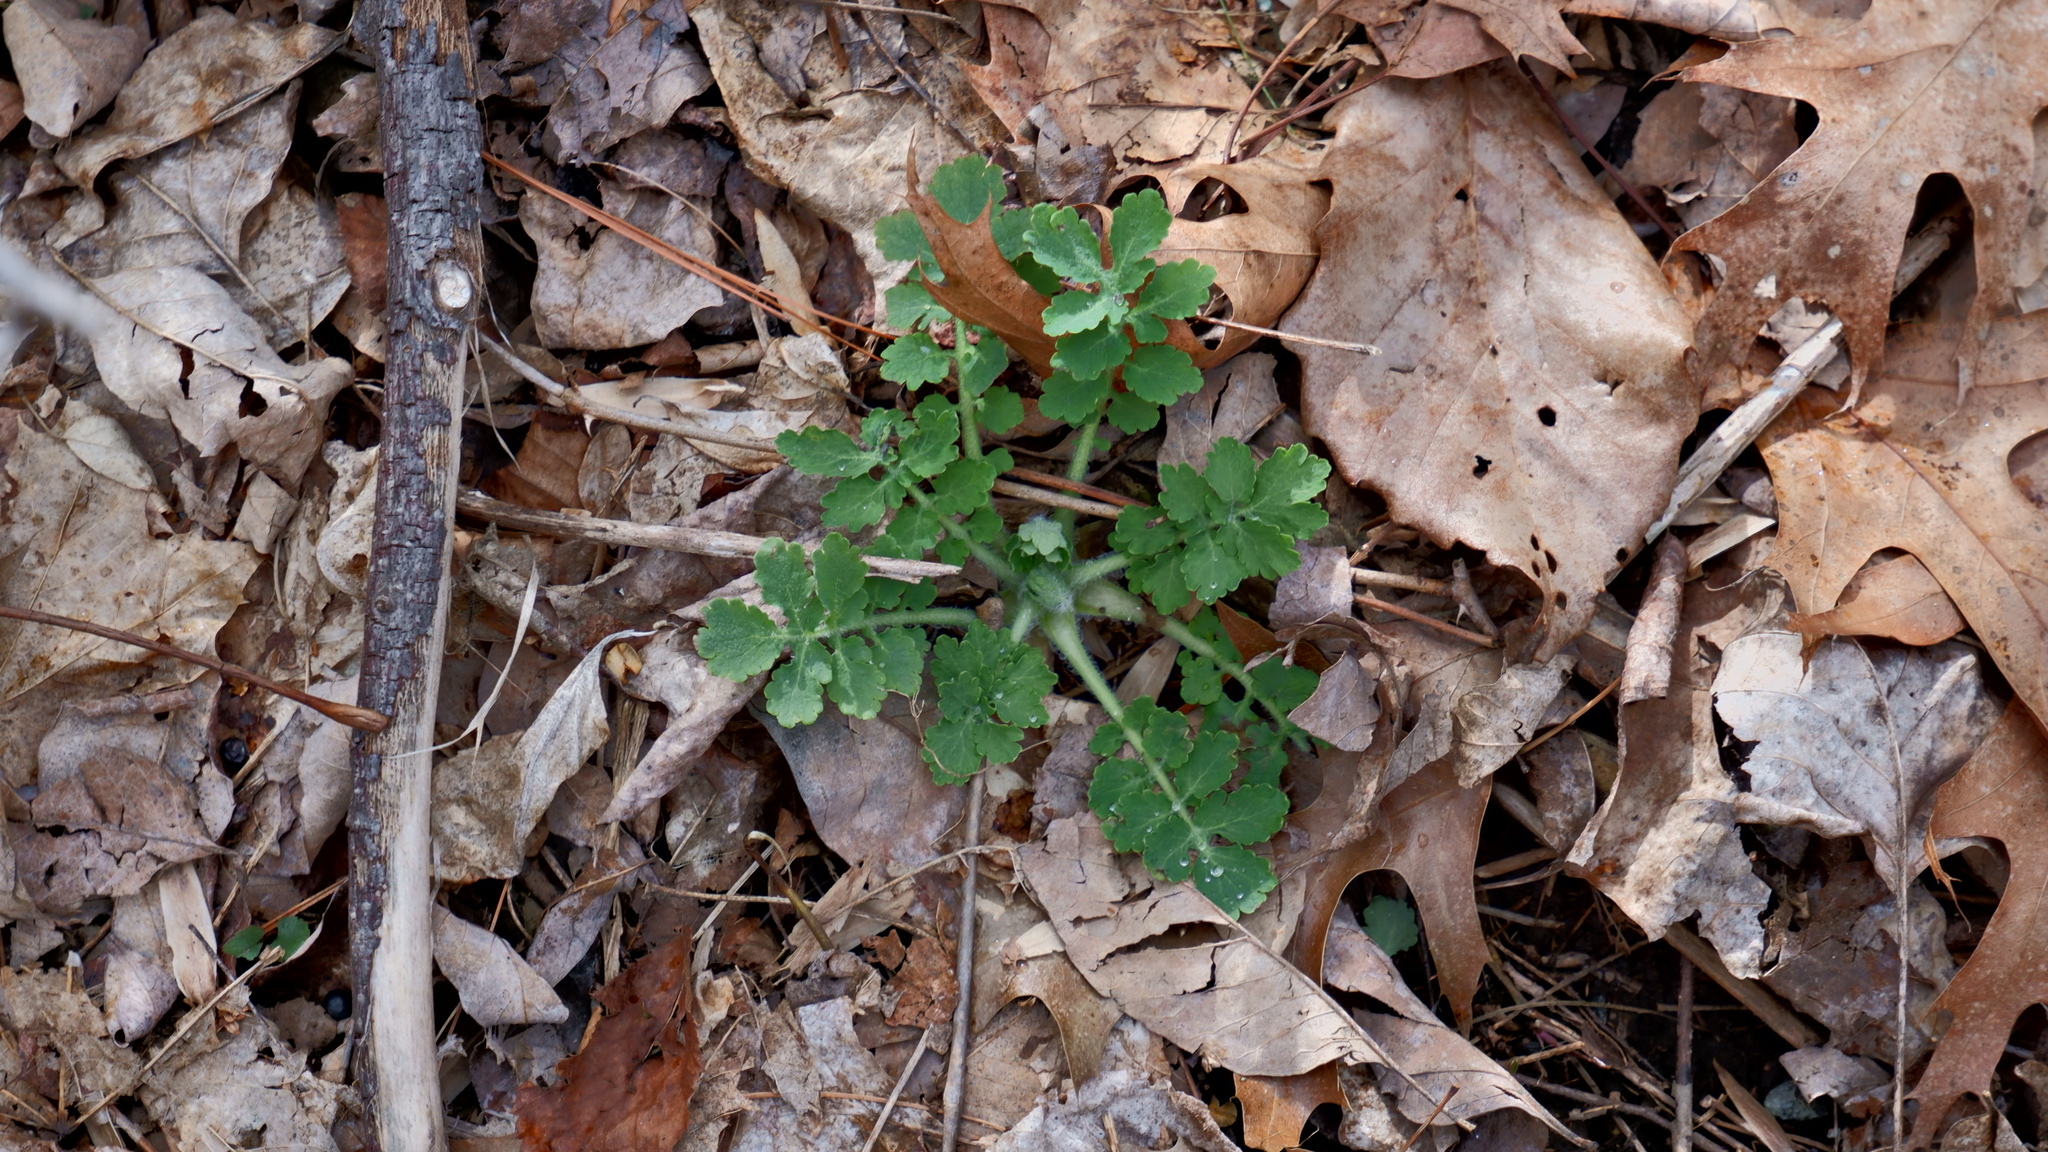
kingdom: Plantae
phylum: Tracheophyta
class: Magnoliopsida
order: Ranunculales
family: Papaveraceae
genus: Chelidonium
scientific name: Chelidonium majus
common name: Greater celandine
